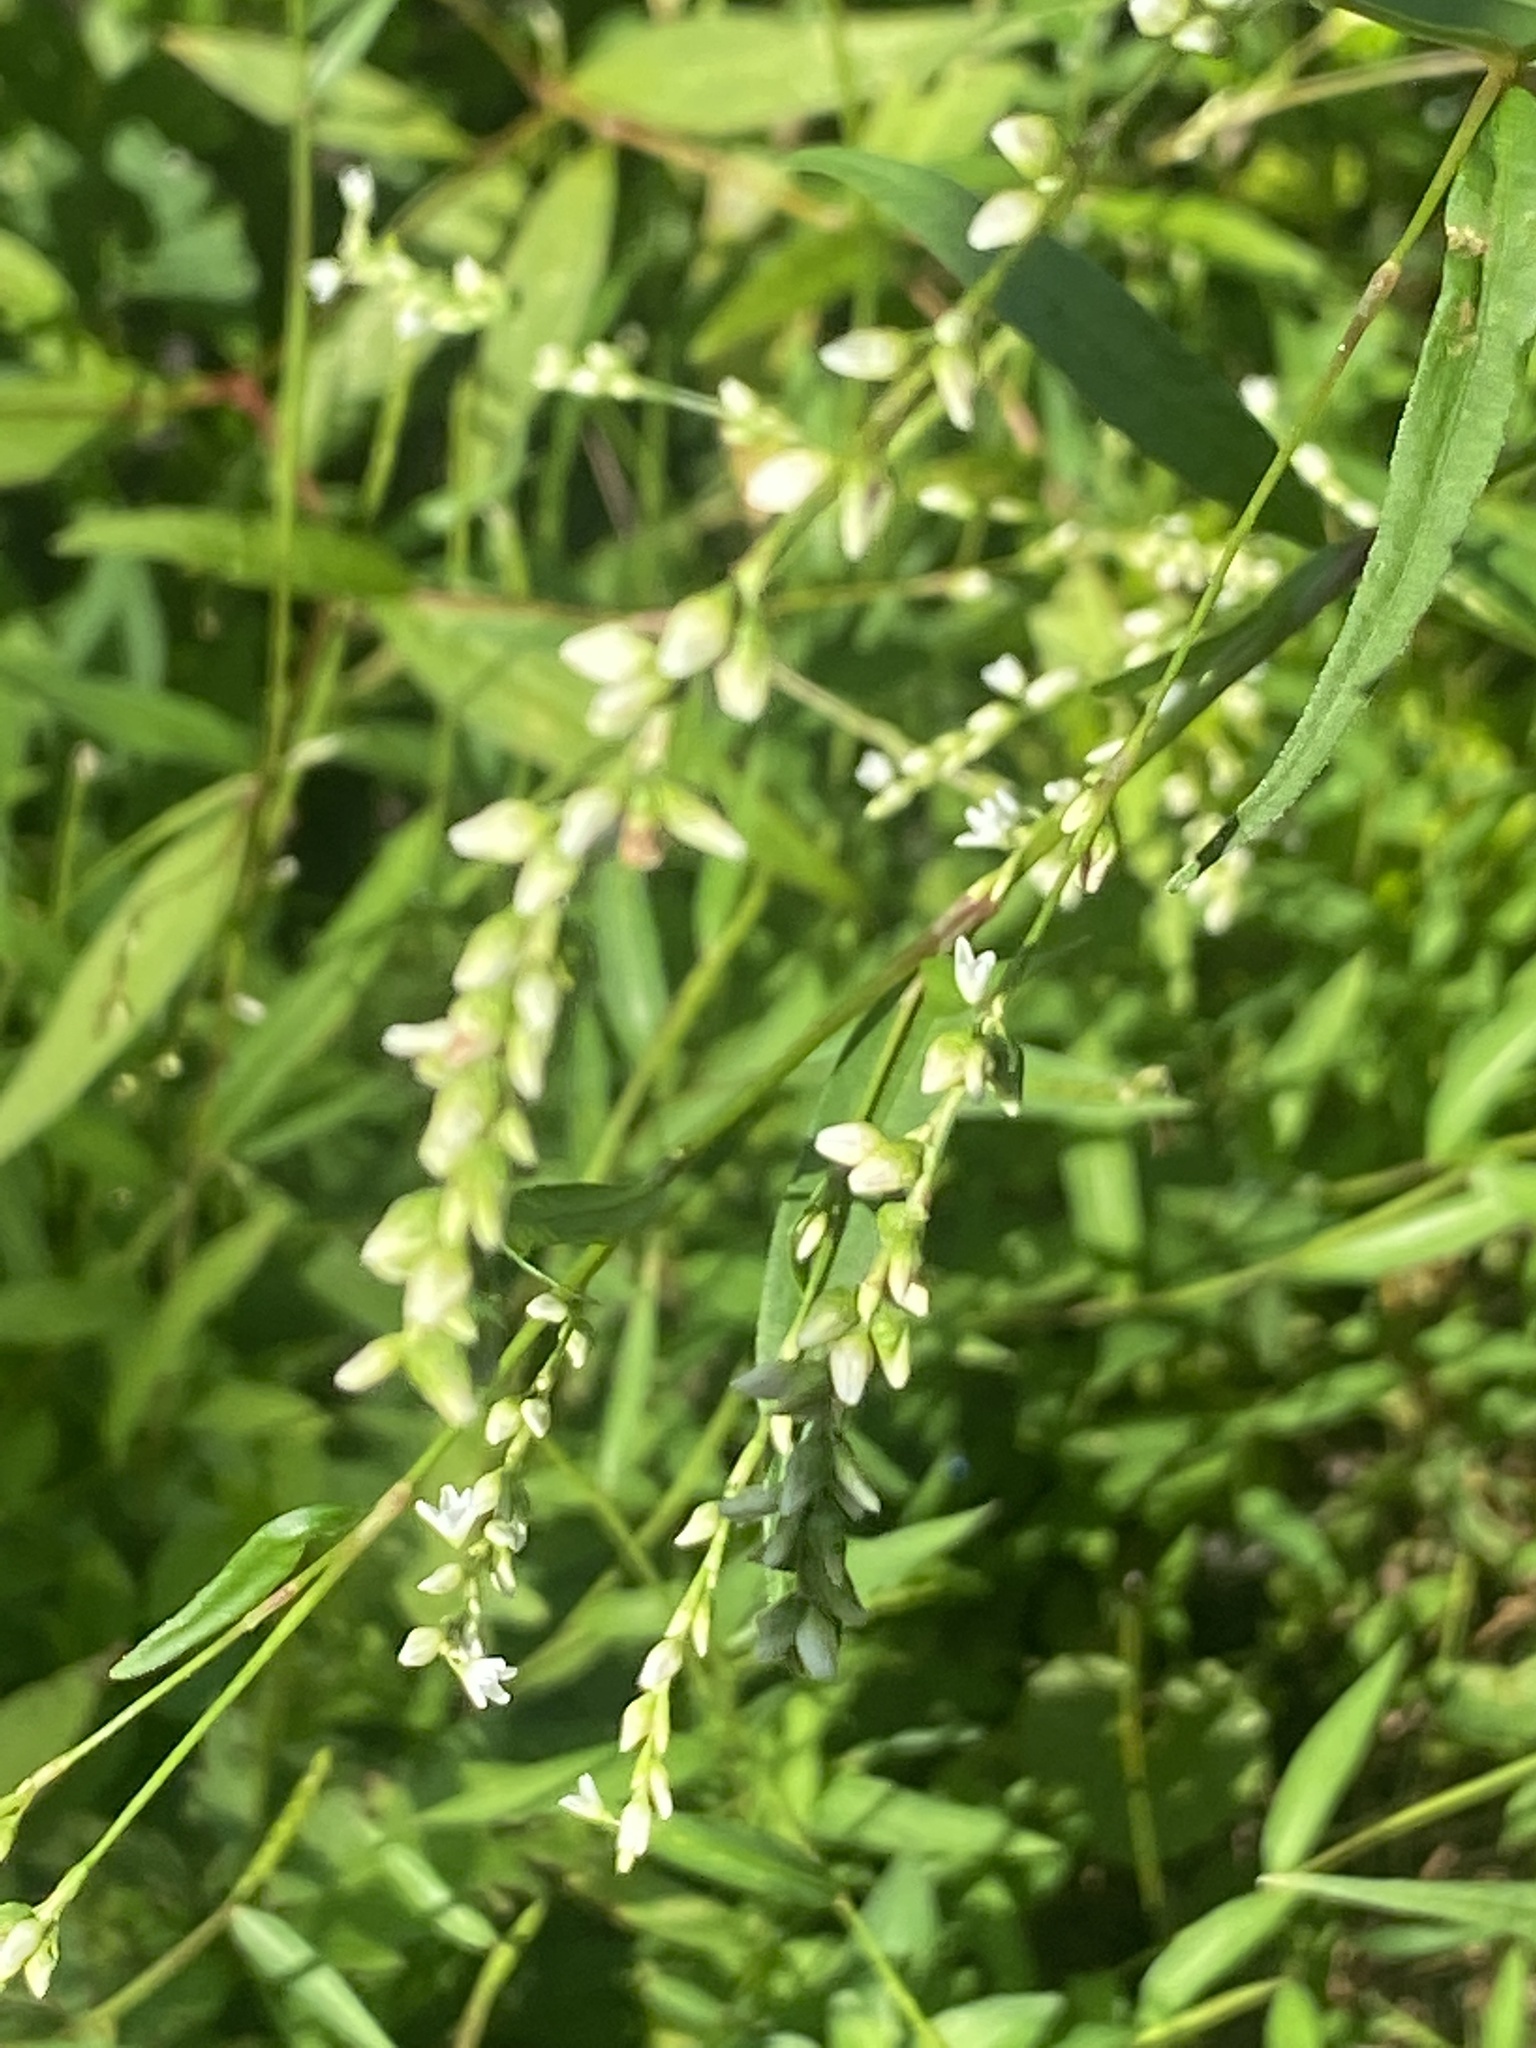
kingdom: Plantae
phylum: Tracheophyta
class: Magnoliopsida
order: Caryophyllales
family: Polygonaceae
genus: Persicaria
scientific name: Persicaria punctata
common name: Dotted smartweed
